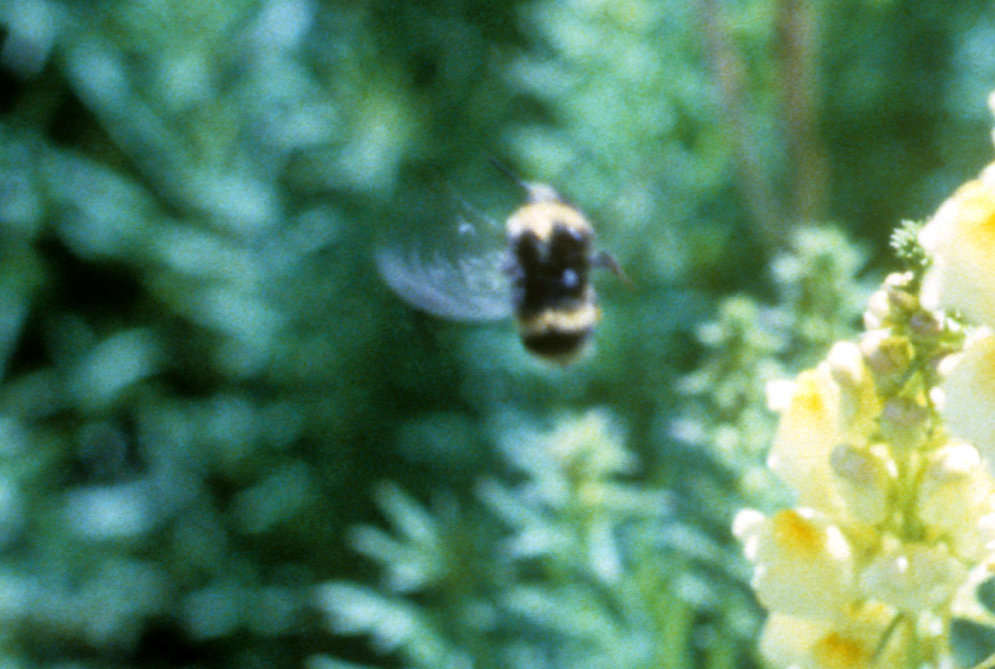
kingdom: Animalia
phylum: Arthropoda
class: Insecta
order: Hymenoptera
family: Apidae
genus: Bombus
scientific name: Bombus occidentalis
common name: Western bumble bee
